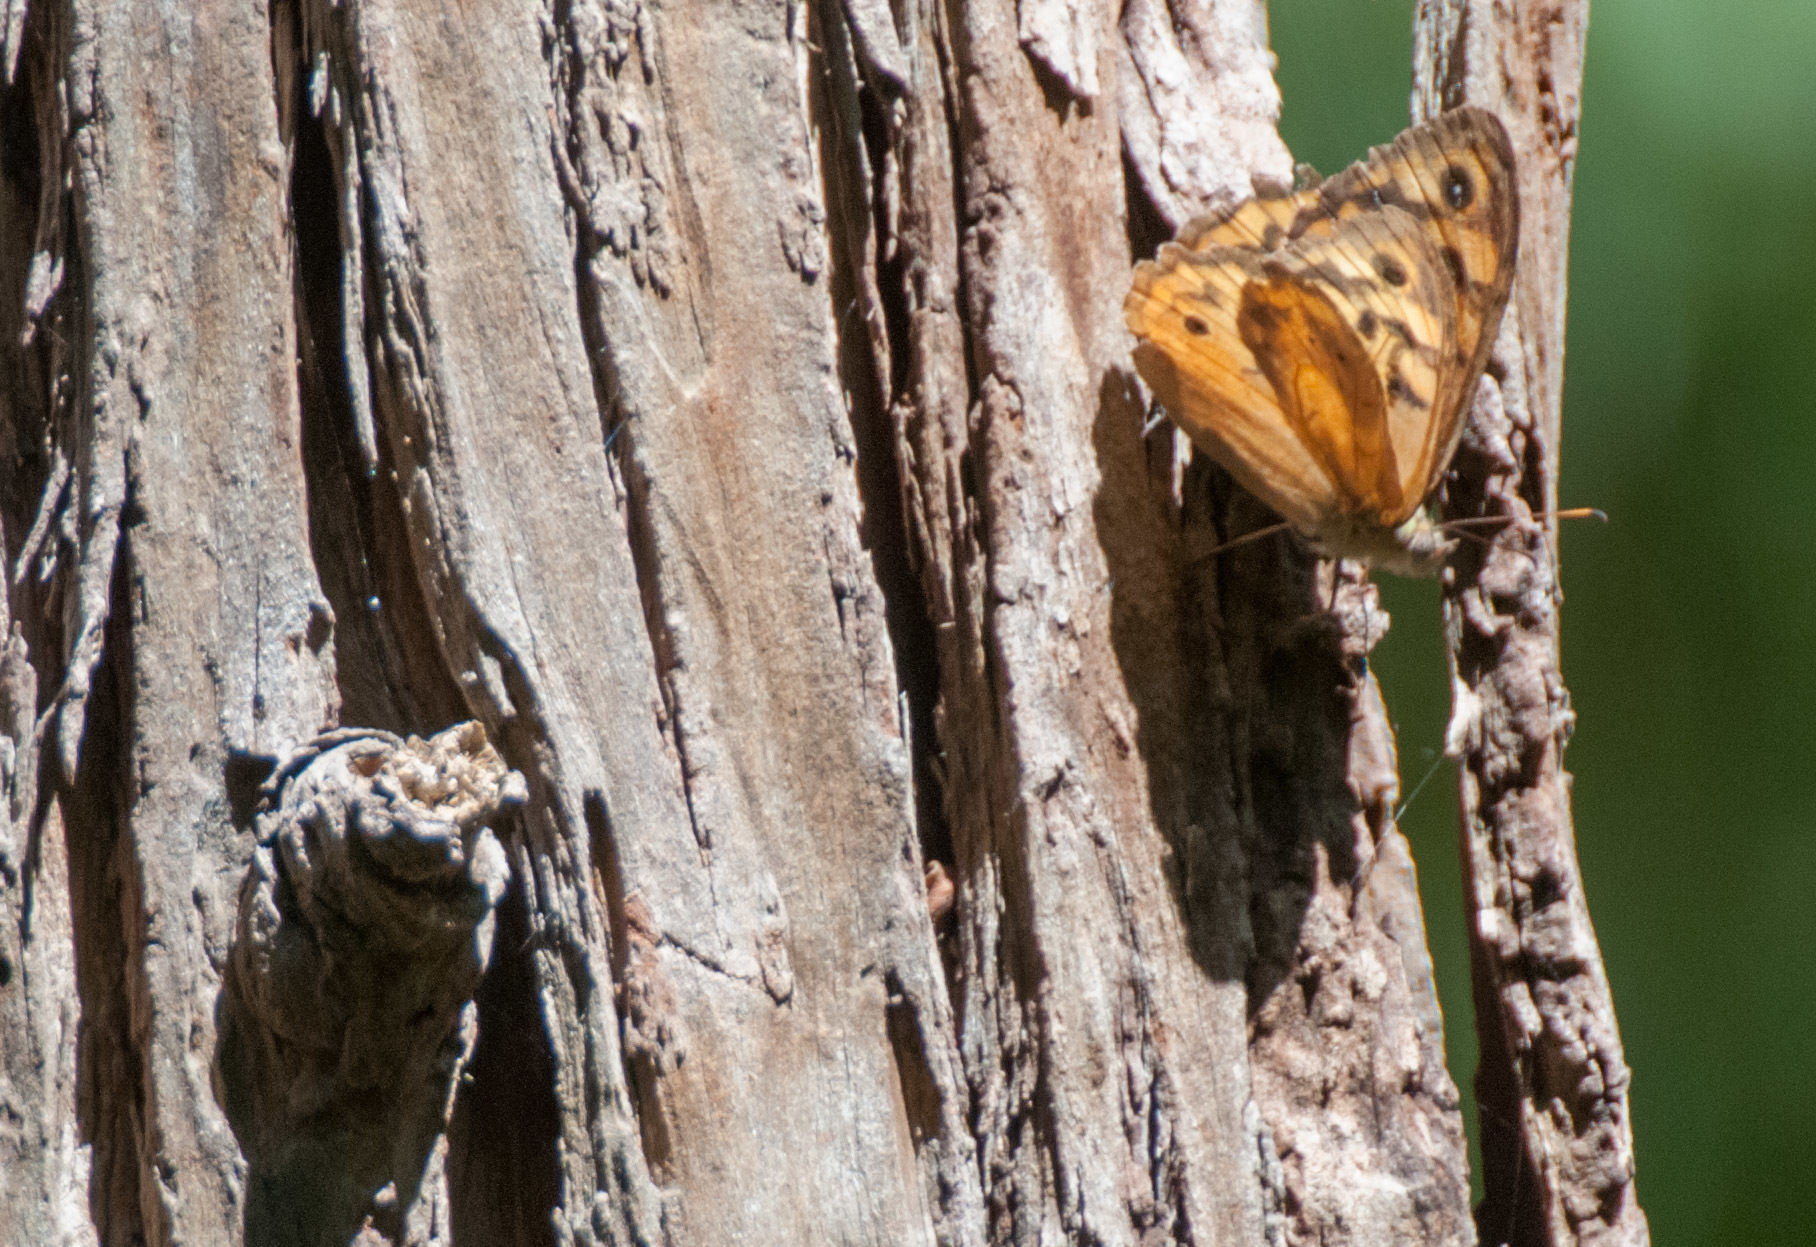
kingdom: Animalia
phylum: Arthropoda
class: Insecta
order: Lepidoptera
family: Nymphalidae
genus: Heteronympha
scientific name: Heteronympha merope
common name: Common brown
